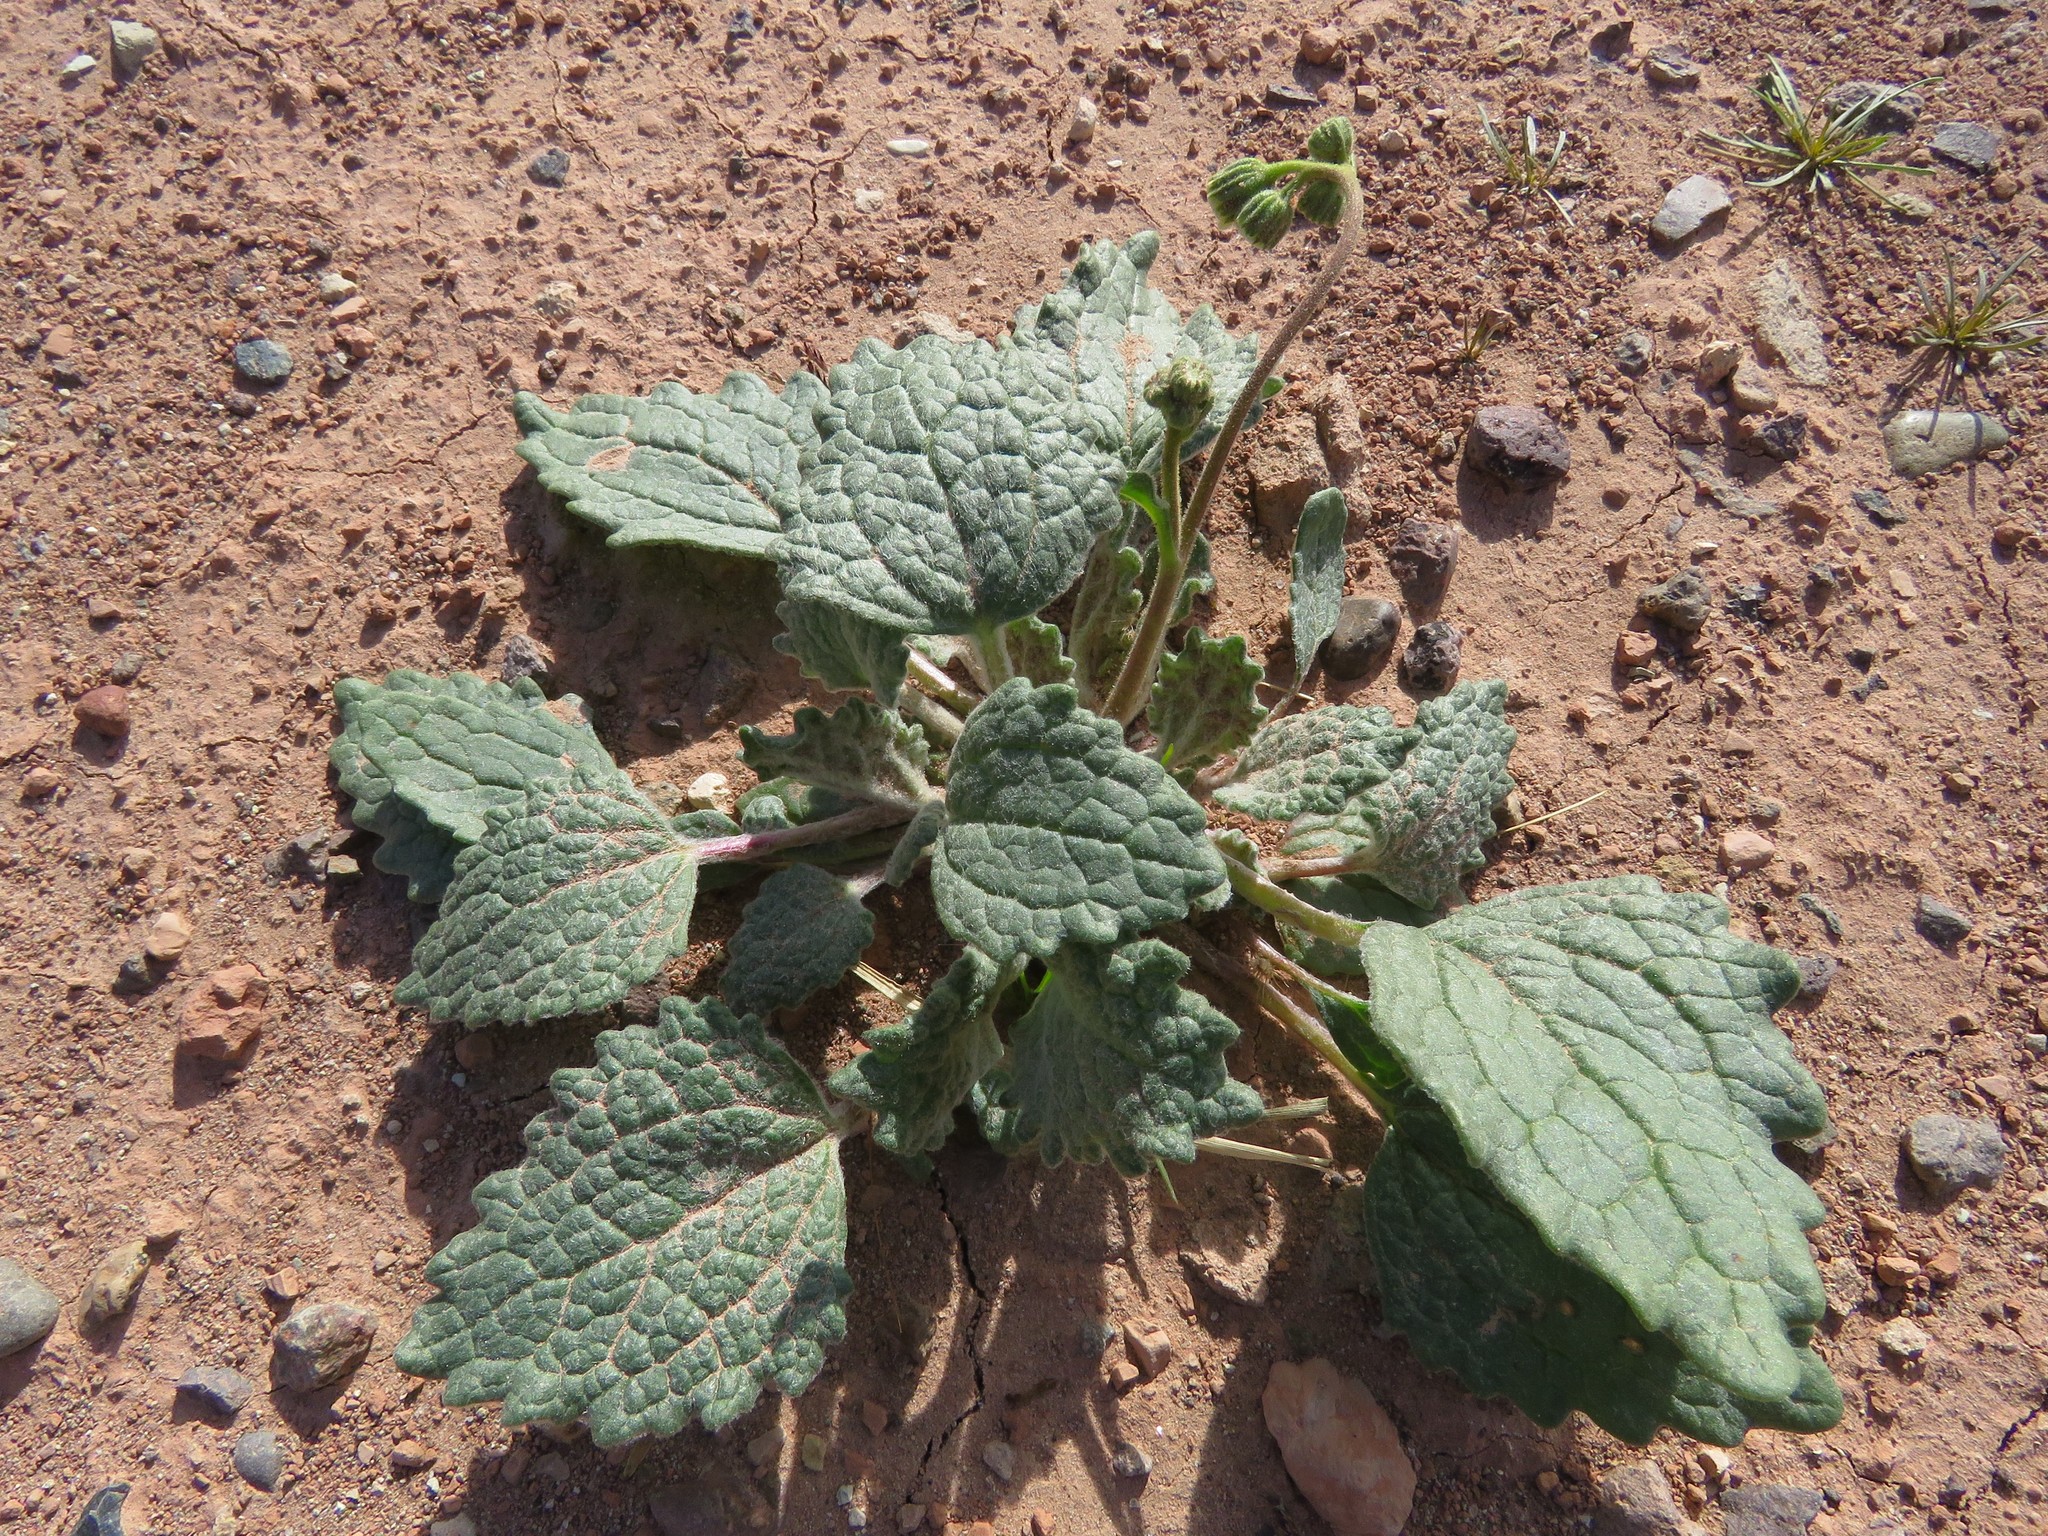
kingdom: Plantae
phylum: Tracheophyta
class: Magnoliopsida
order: Asterales
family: Asteraceae
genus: Psathyrotopsis
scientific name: Psathyrotopsis scaposa
